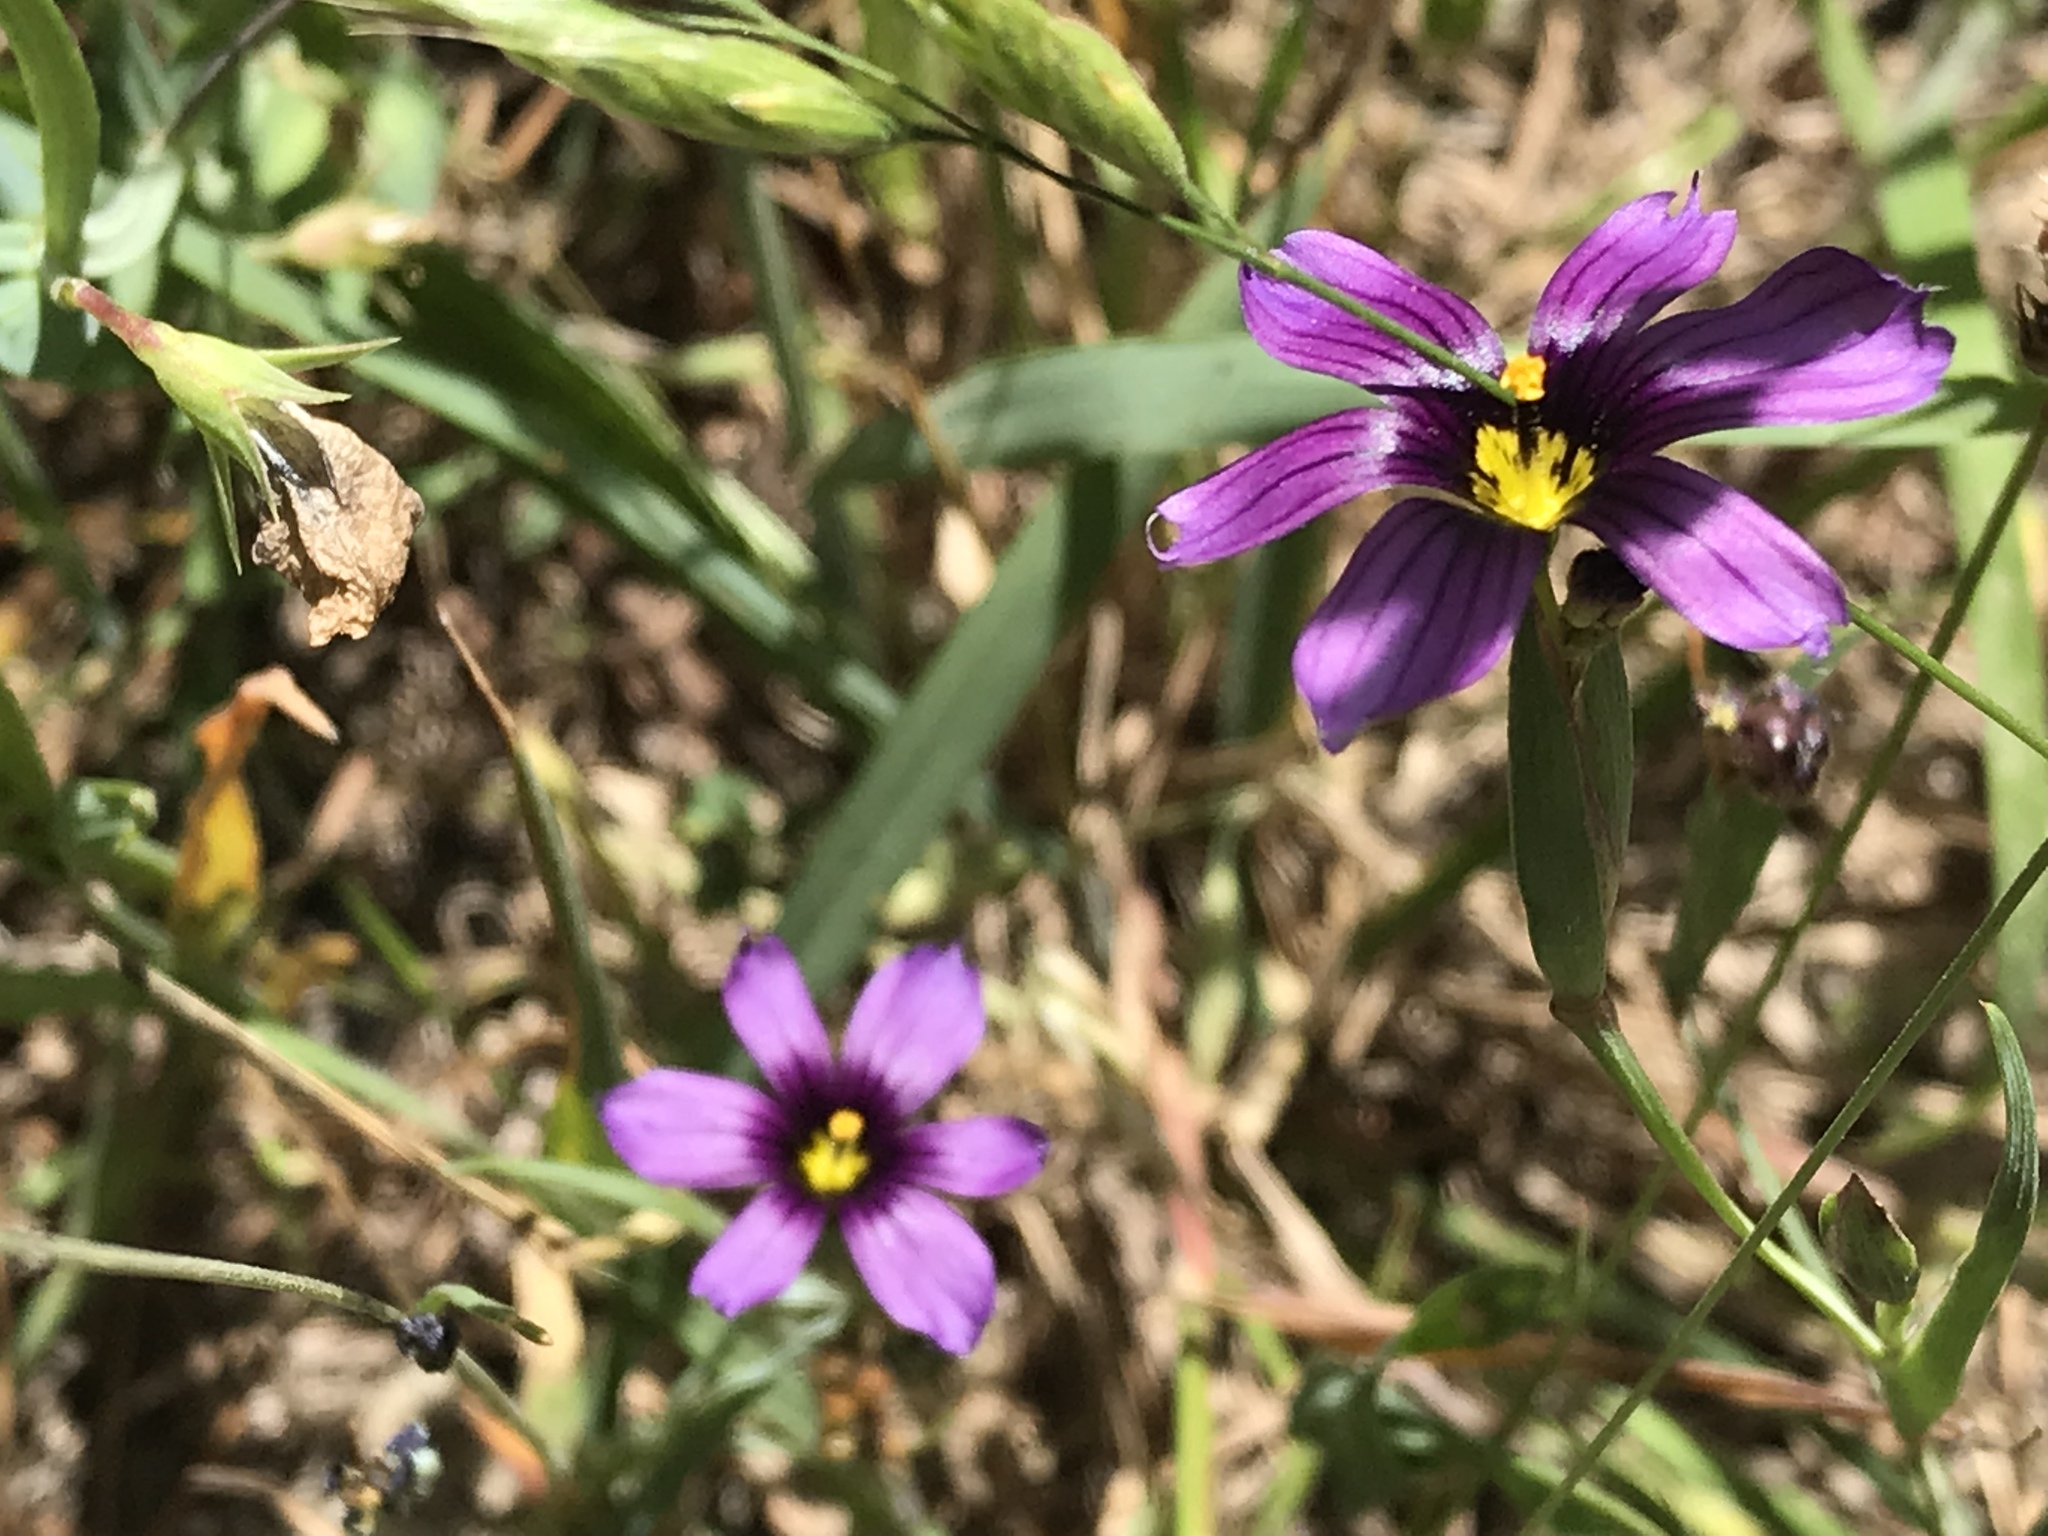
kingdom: Plantae
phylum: Tracheophyta
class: Liliopsida
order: Asparagales
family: Iridaceae
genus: Sisyrinchium
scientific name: Sisyrinchium bellum
